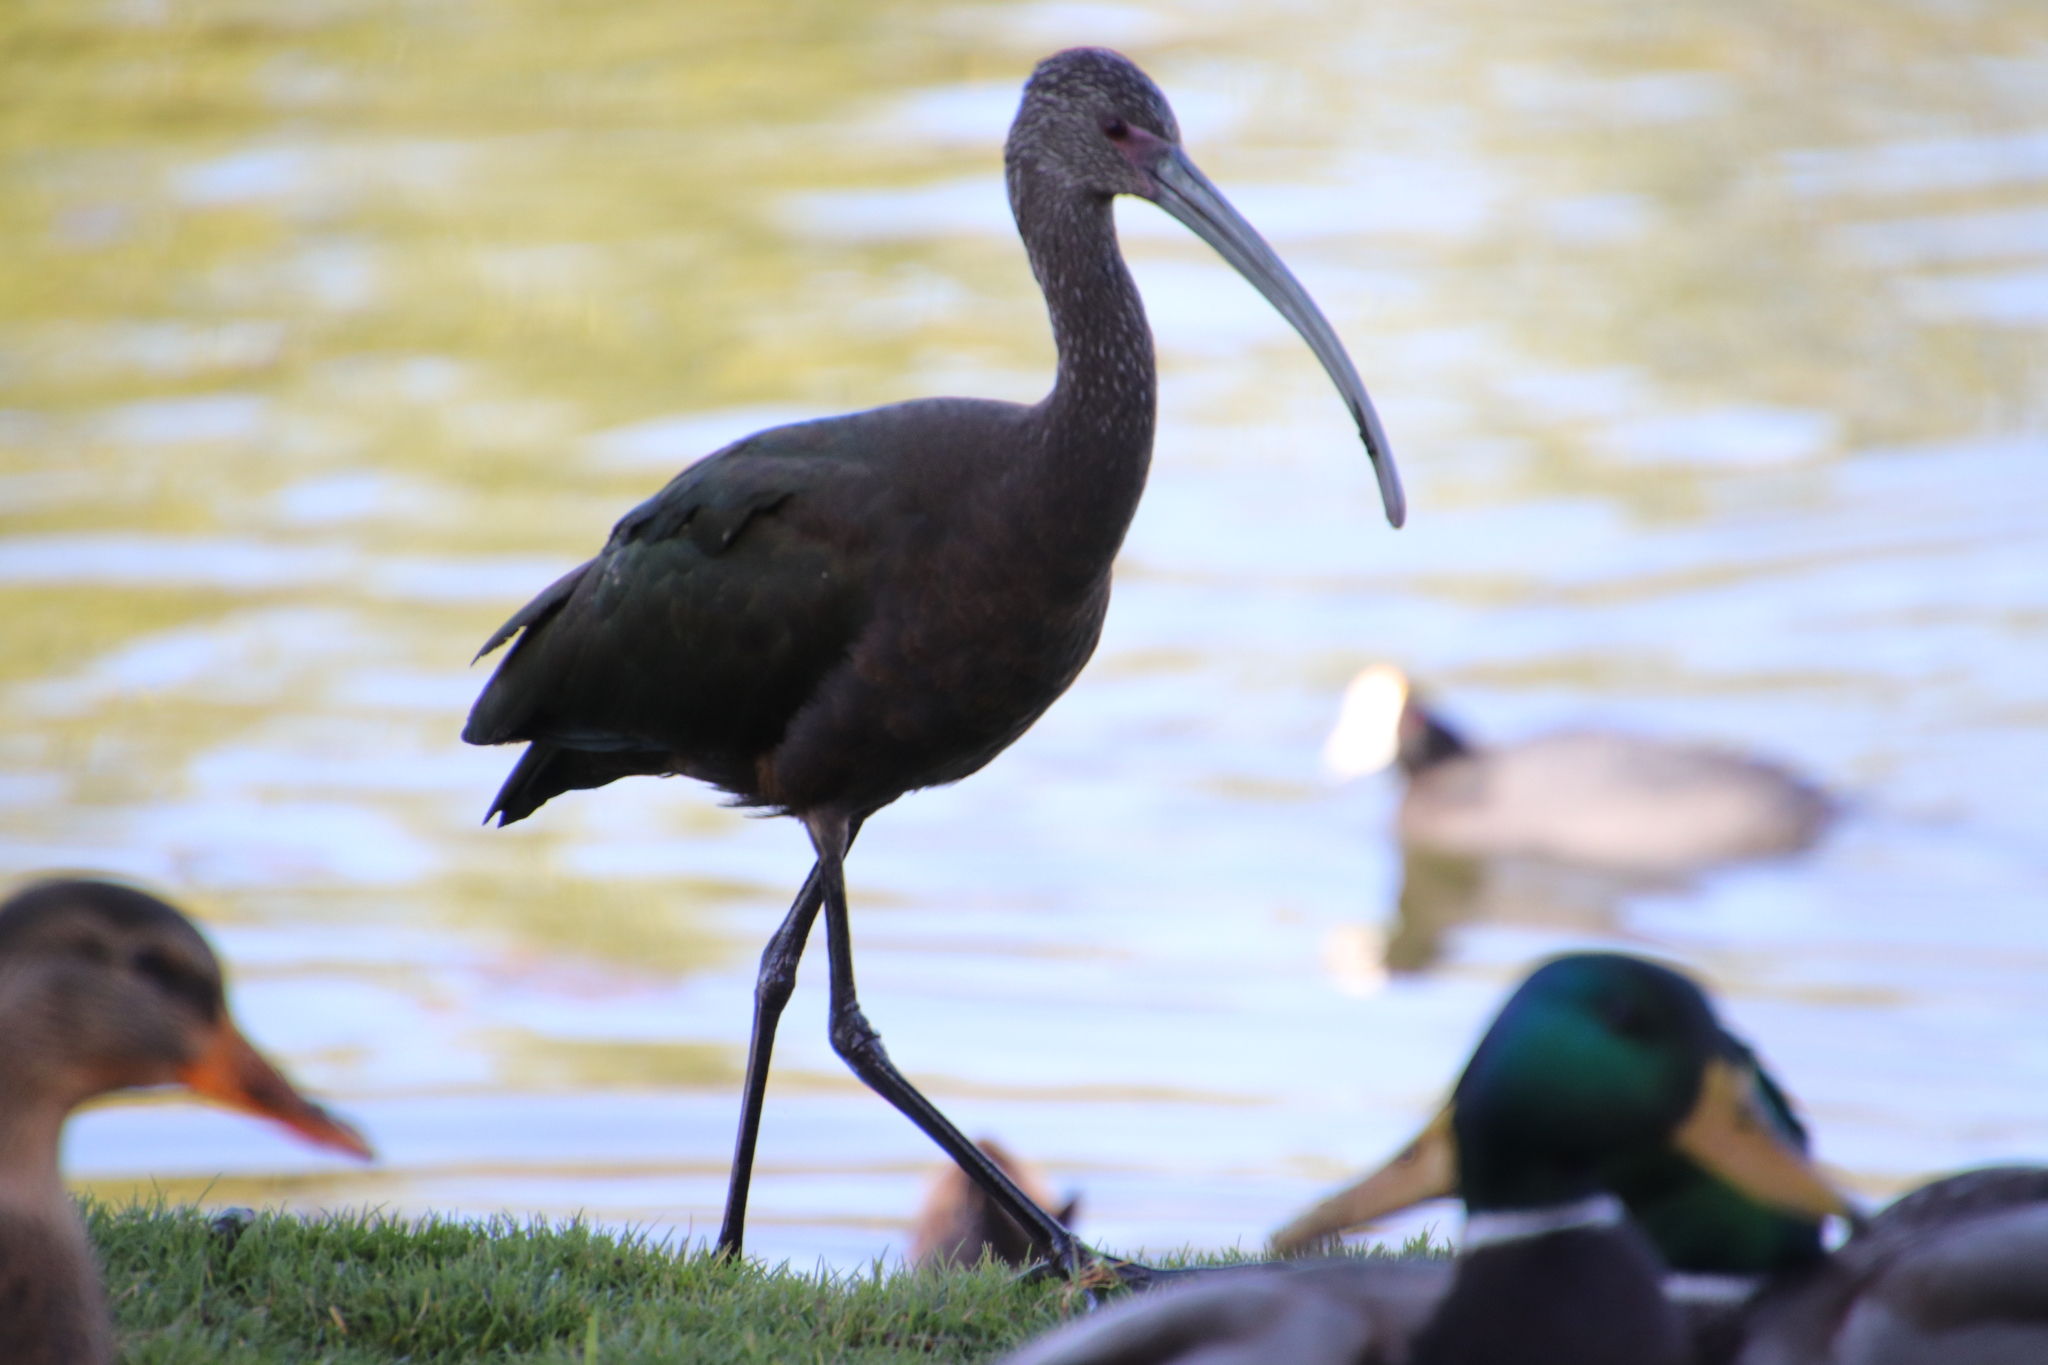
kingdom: Animalia
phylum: Chordata
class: Aves
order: Pelecaniformes
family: Threskiornithidae
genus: Plegadis
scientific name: Plegadis chihi
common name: White-faced ibis
